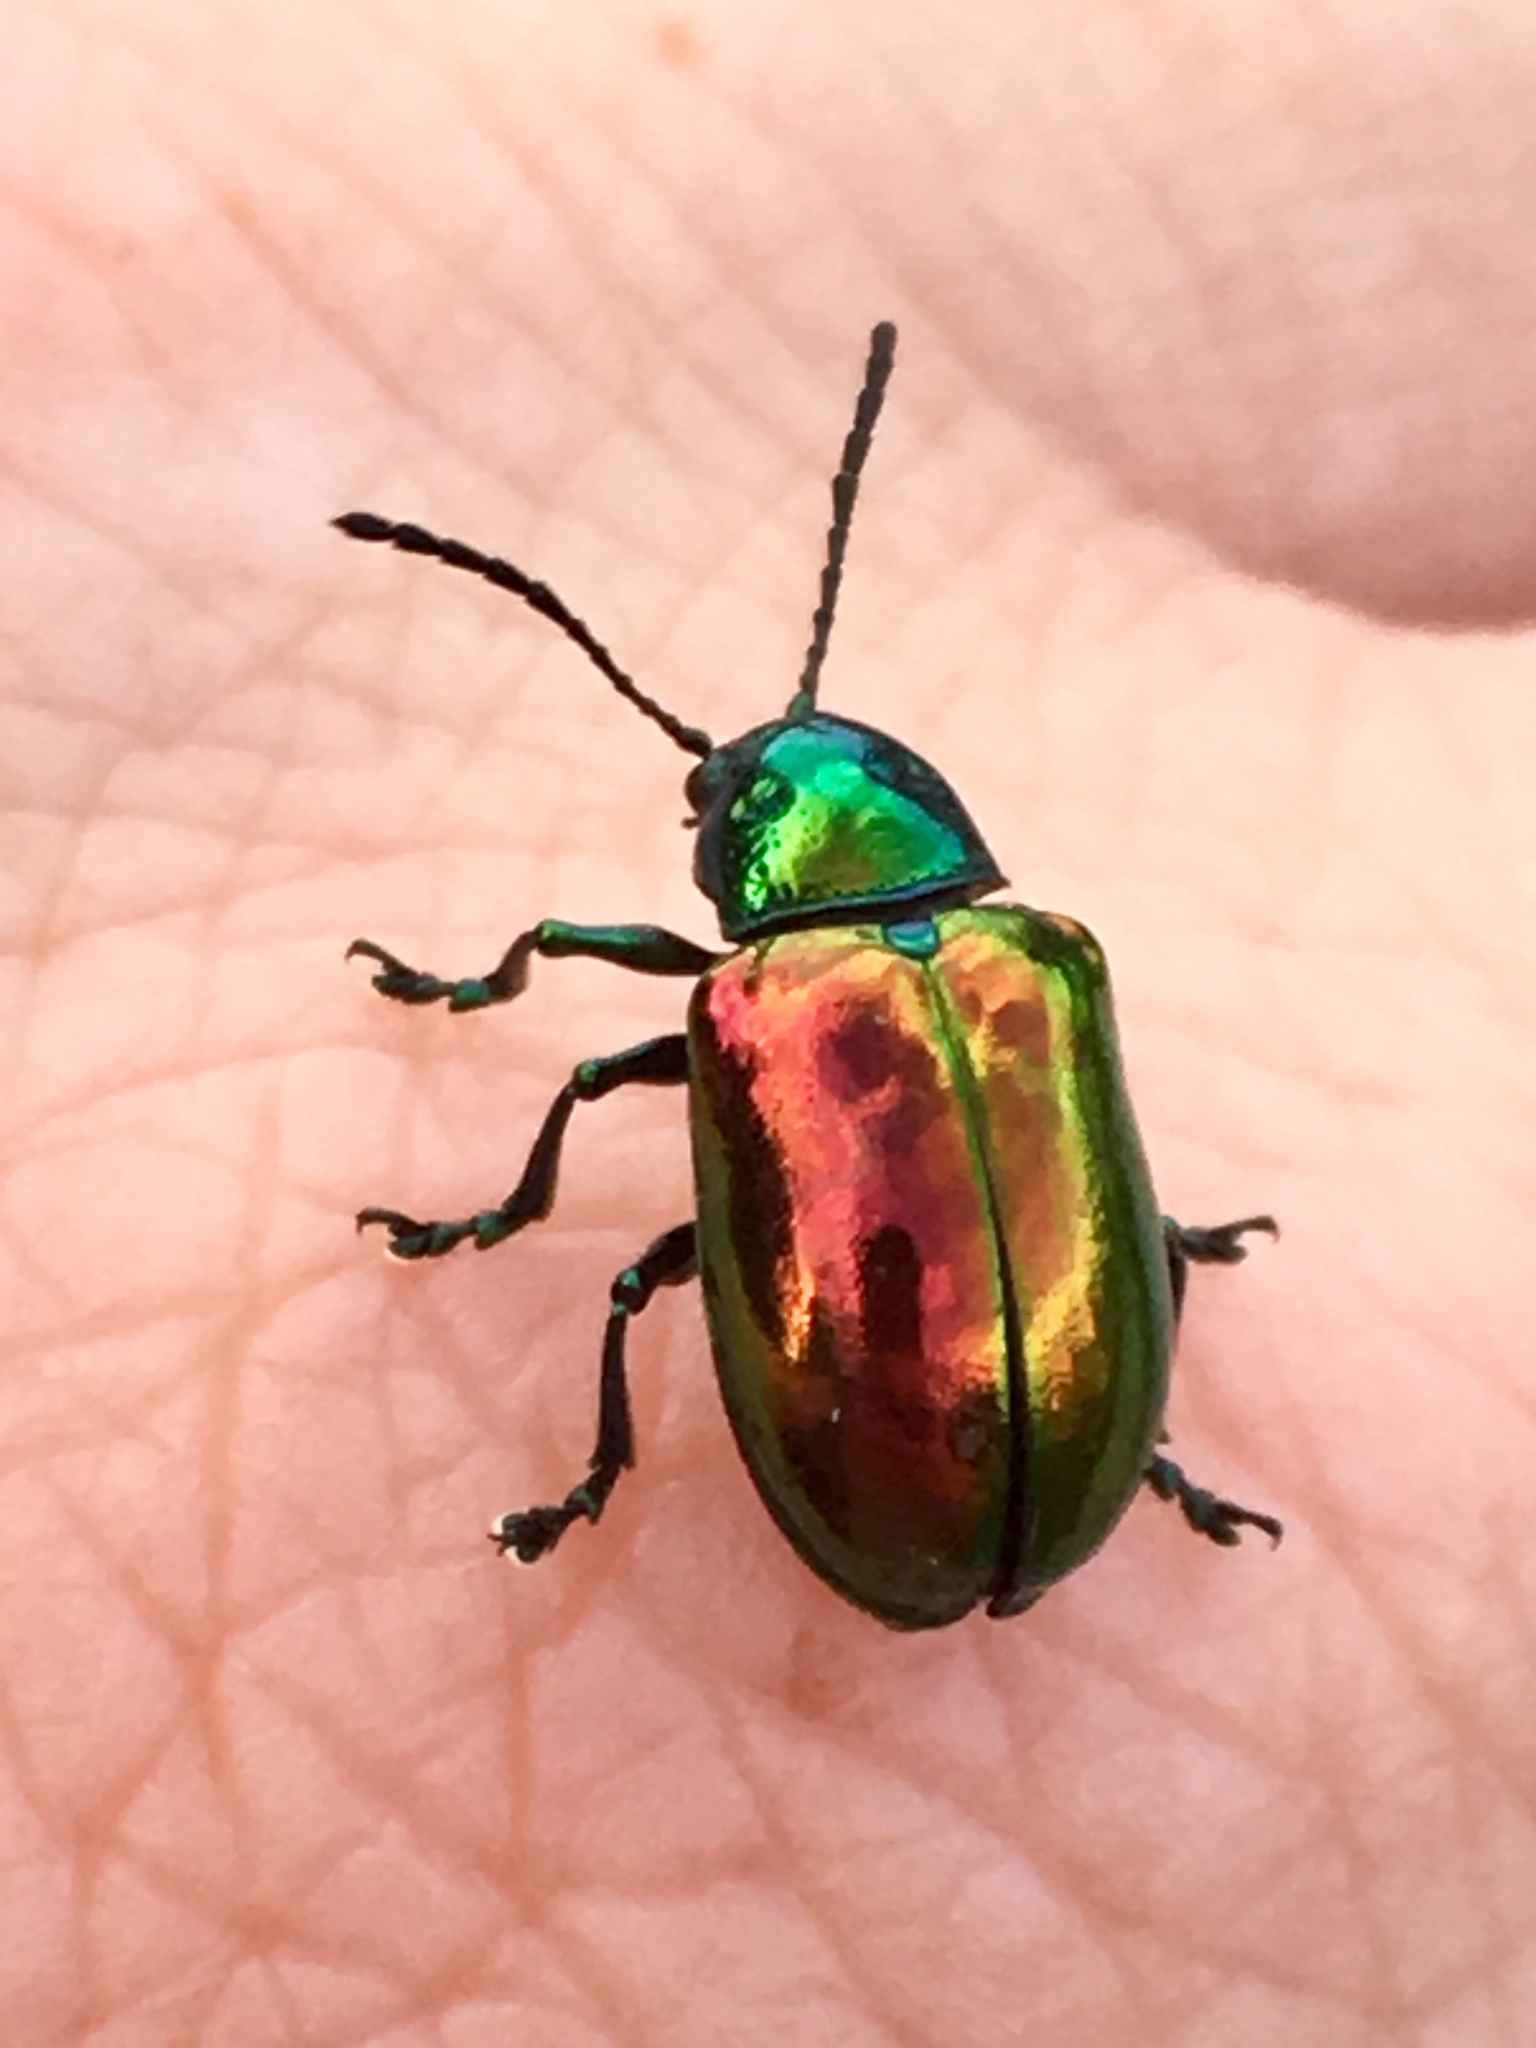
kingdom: Animalia
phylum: Arthropoda
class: Insecta
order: Coleoptera
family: Chrysomelidae
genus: Chrysochus
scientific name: Chrysochus auratus
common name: Dogbane leaf beetle
